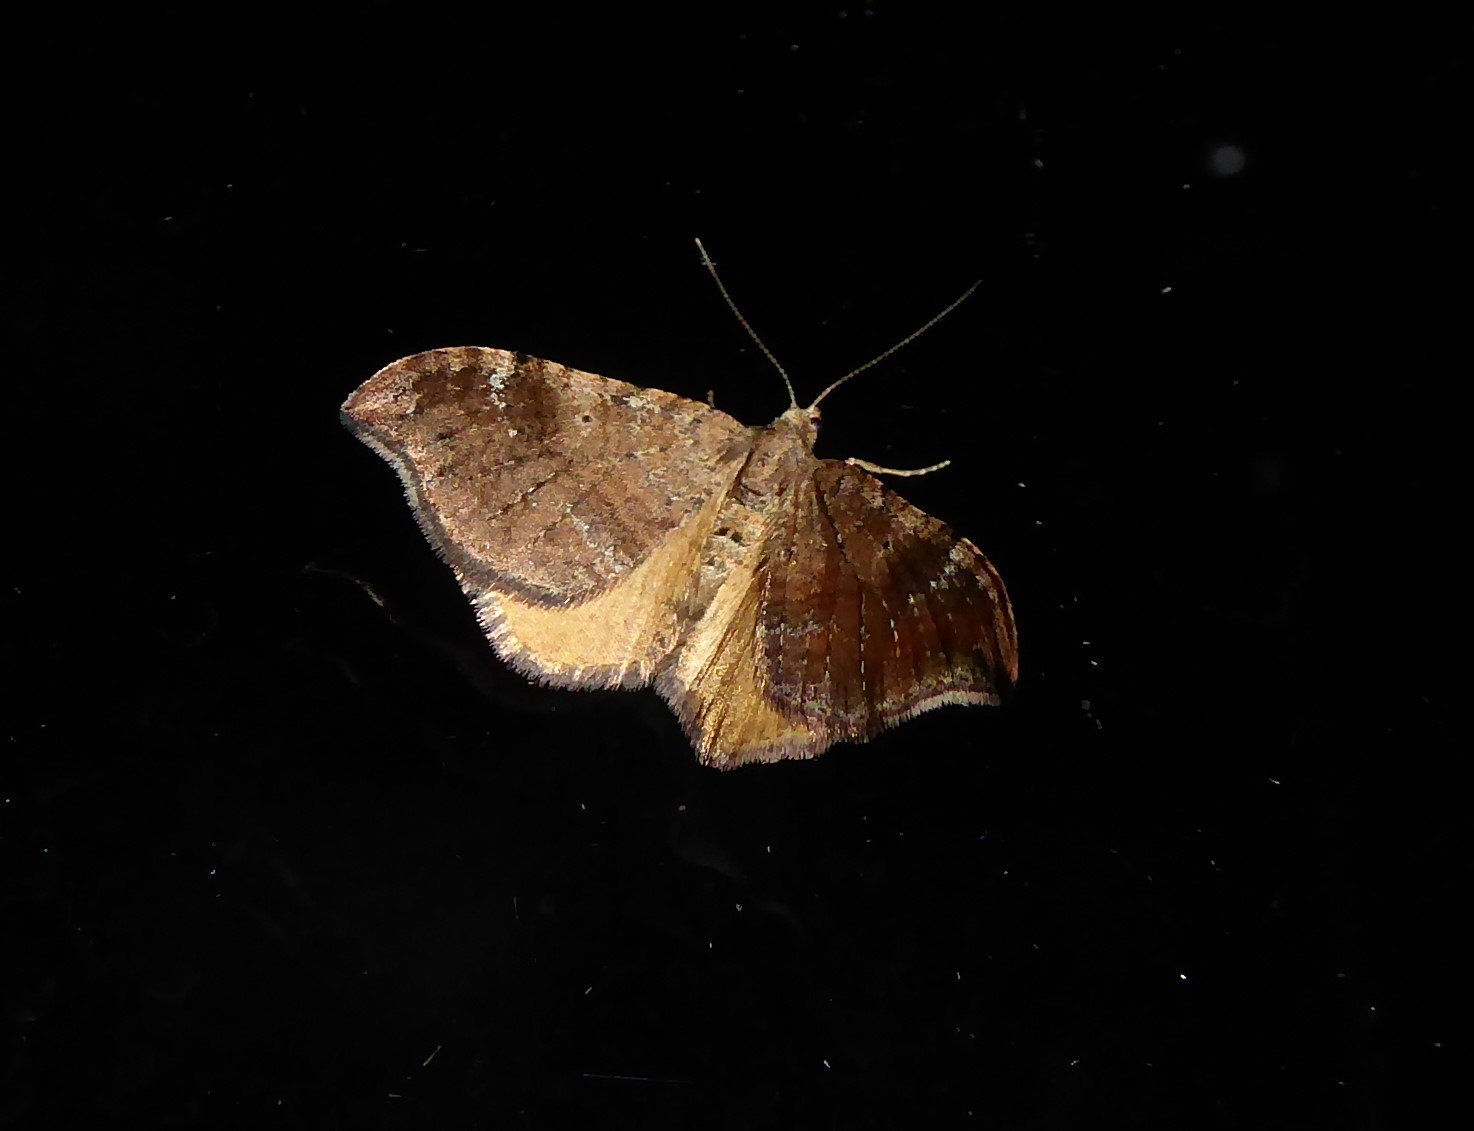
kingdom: Animalia
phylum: Arthropoda
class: Insecta
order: Lepidoptera
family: Geometridae
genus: Homodotis
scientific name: Homodotis megaspilata
